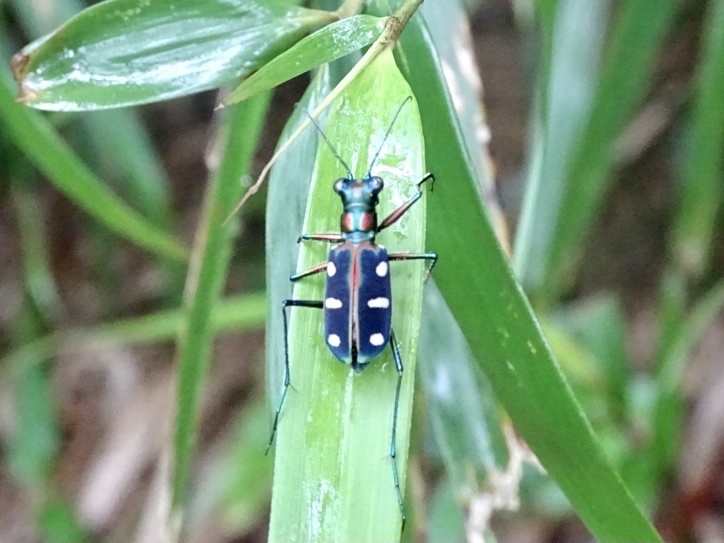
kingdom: Animalia
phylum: Arthropoda
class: Insecta
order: Coleoptera
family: Carabidae
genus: Cicindela
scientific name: Cicindela juxtata
